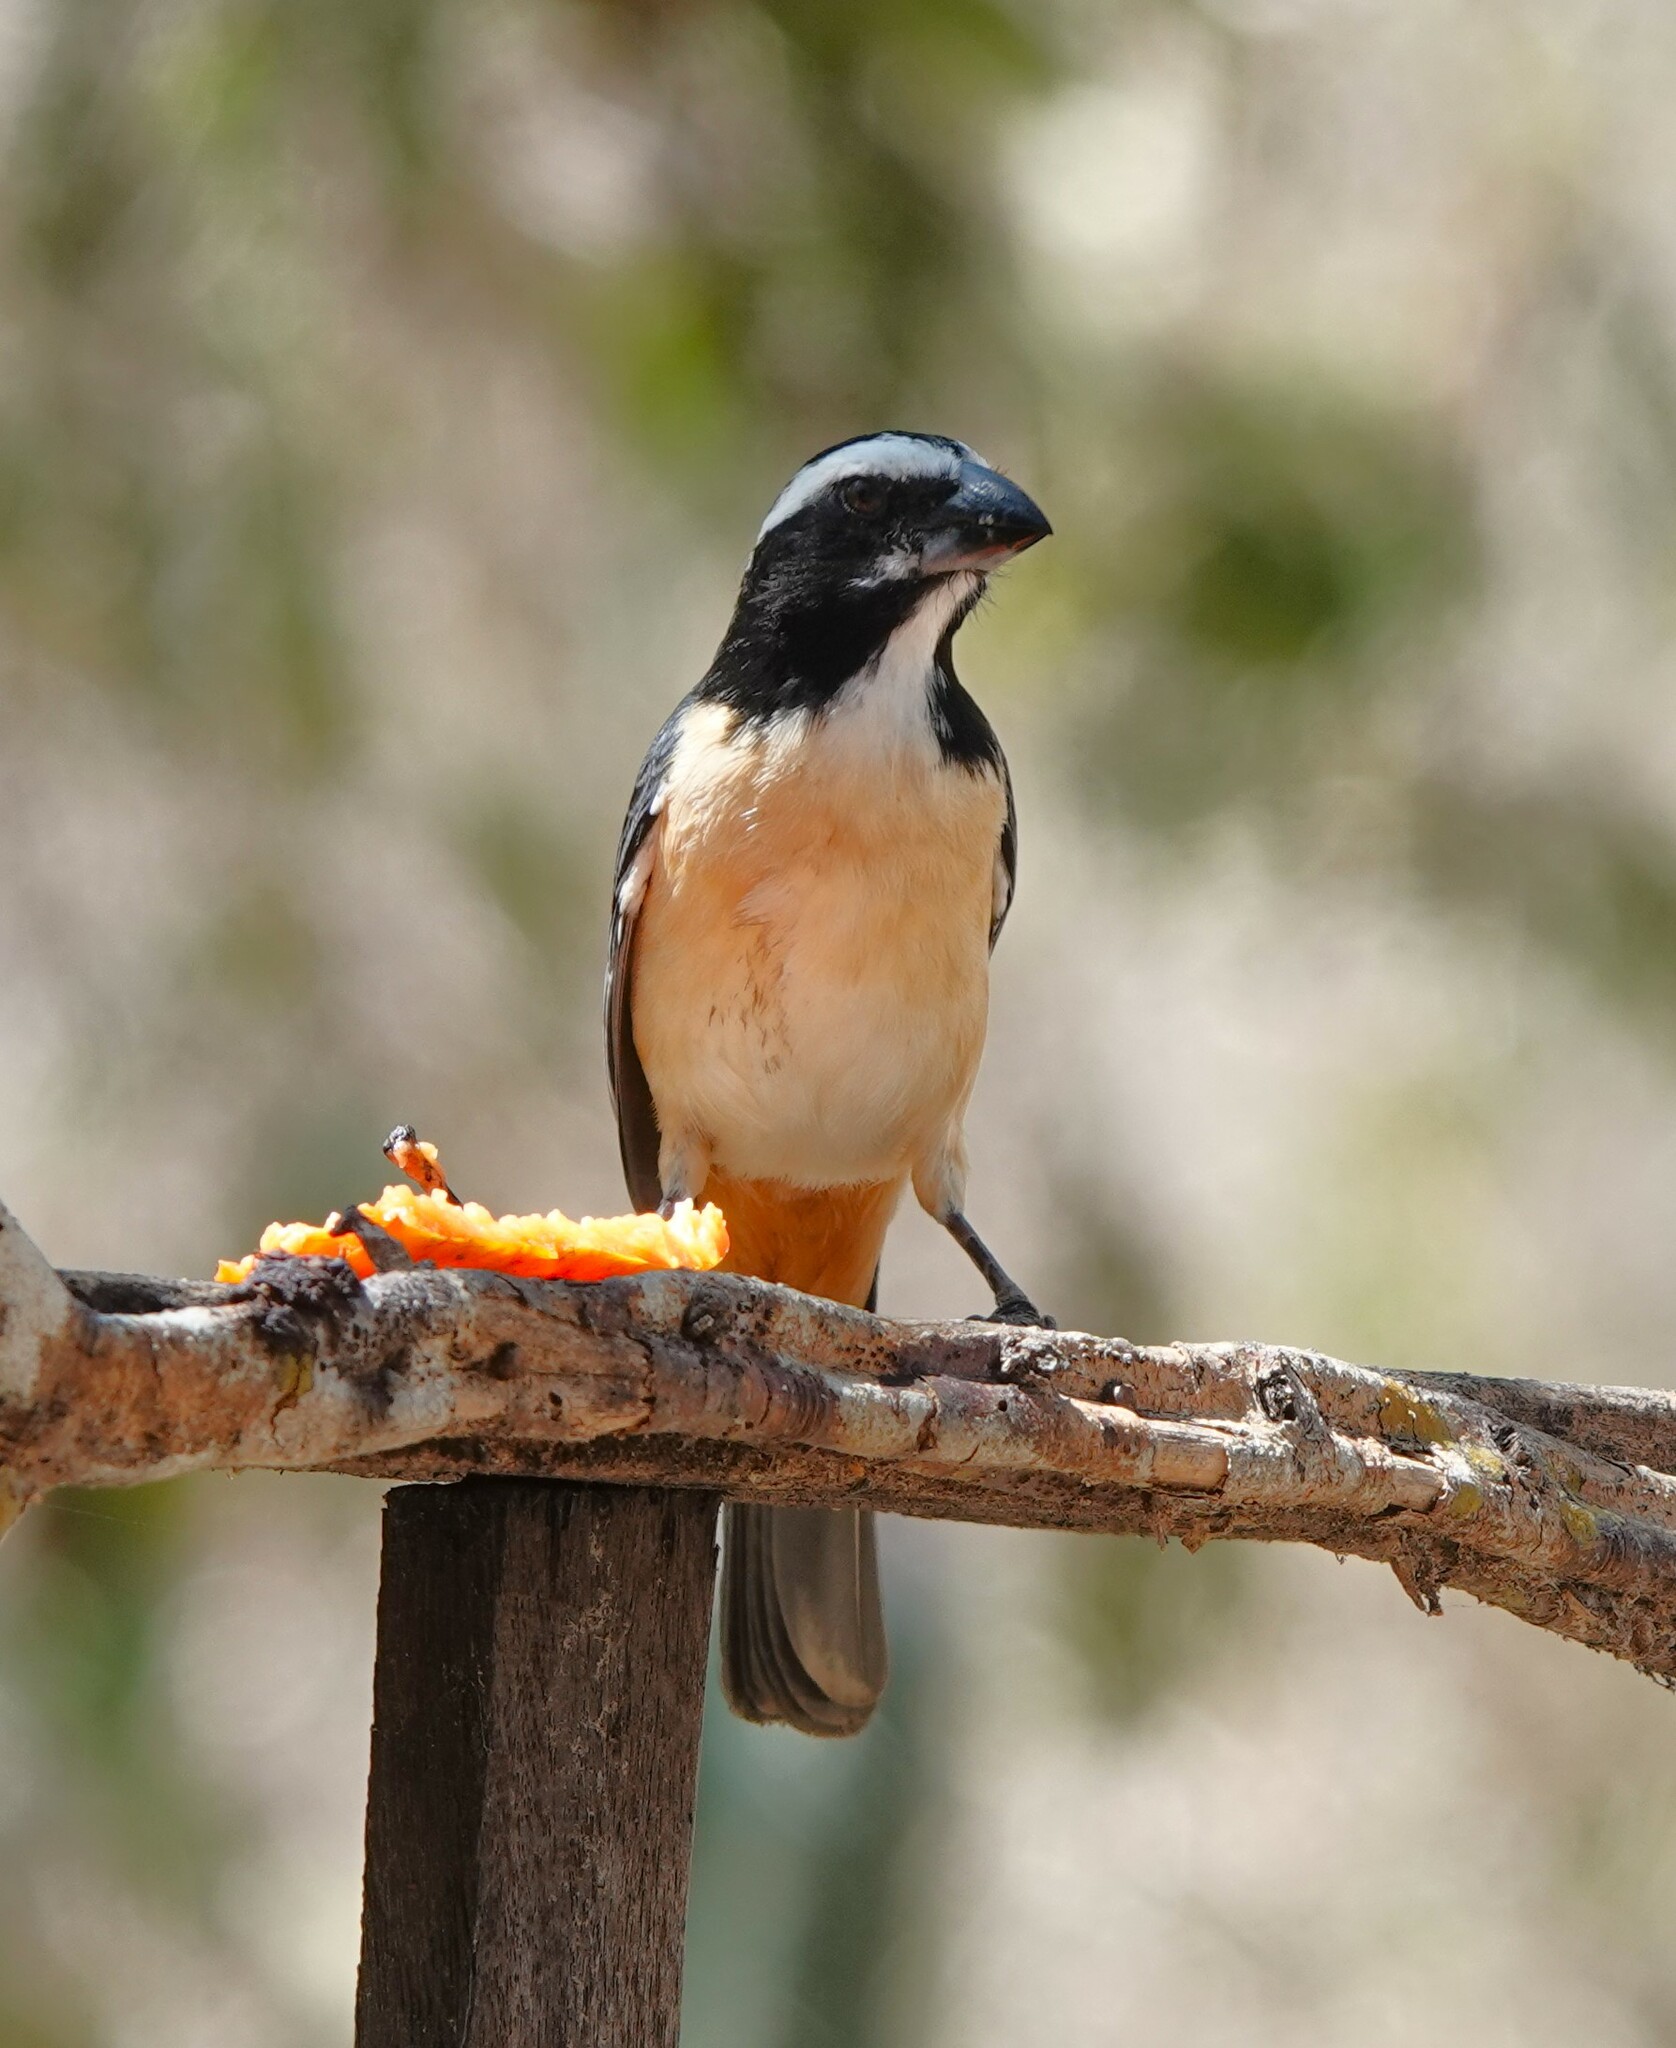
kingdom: Animalia
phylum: Chordata
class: Aves
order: Passeriformes
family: Thraupidae
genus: Saltator
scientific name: Saltator orenocensis
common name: Orinoco saltator
